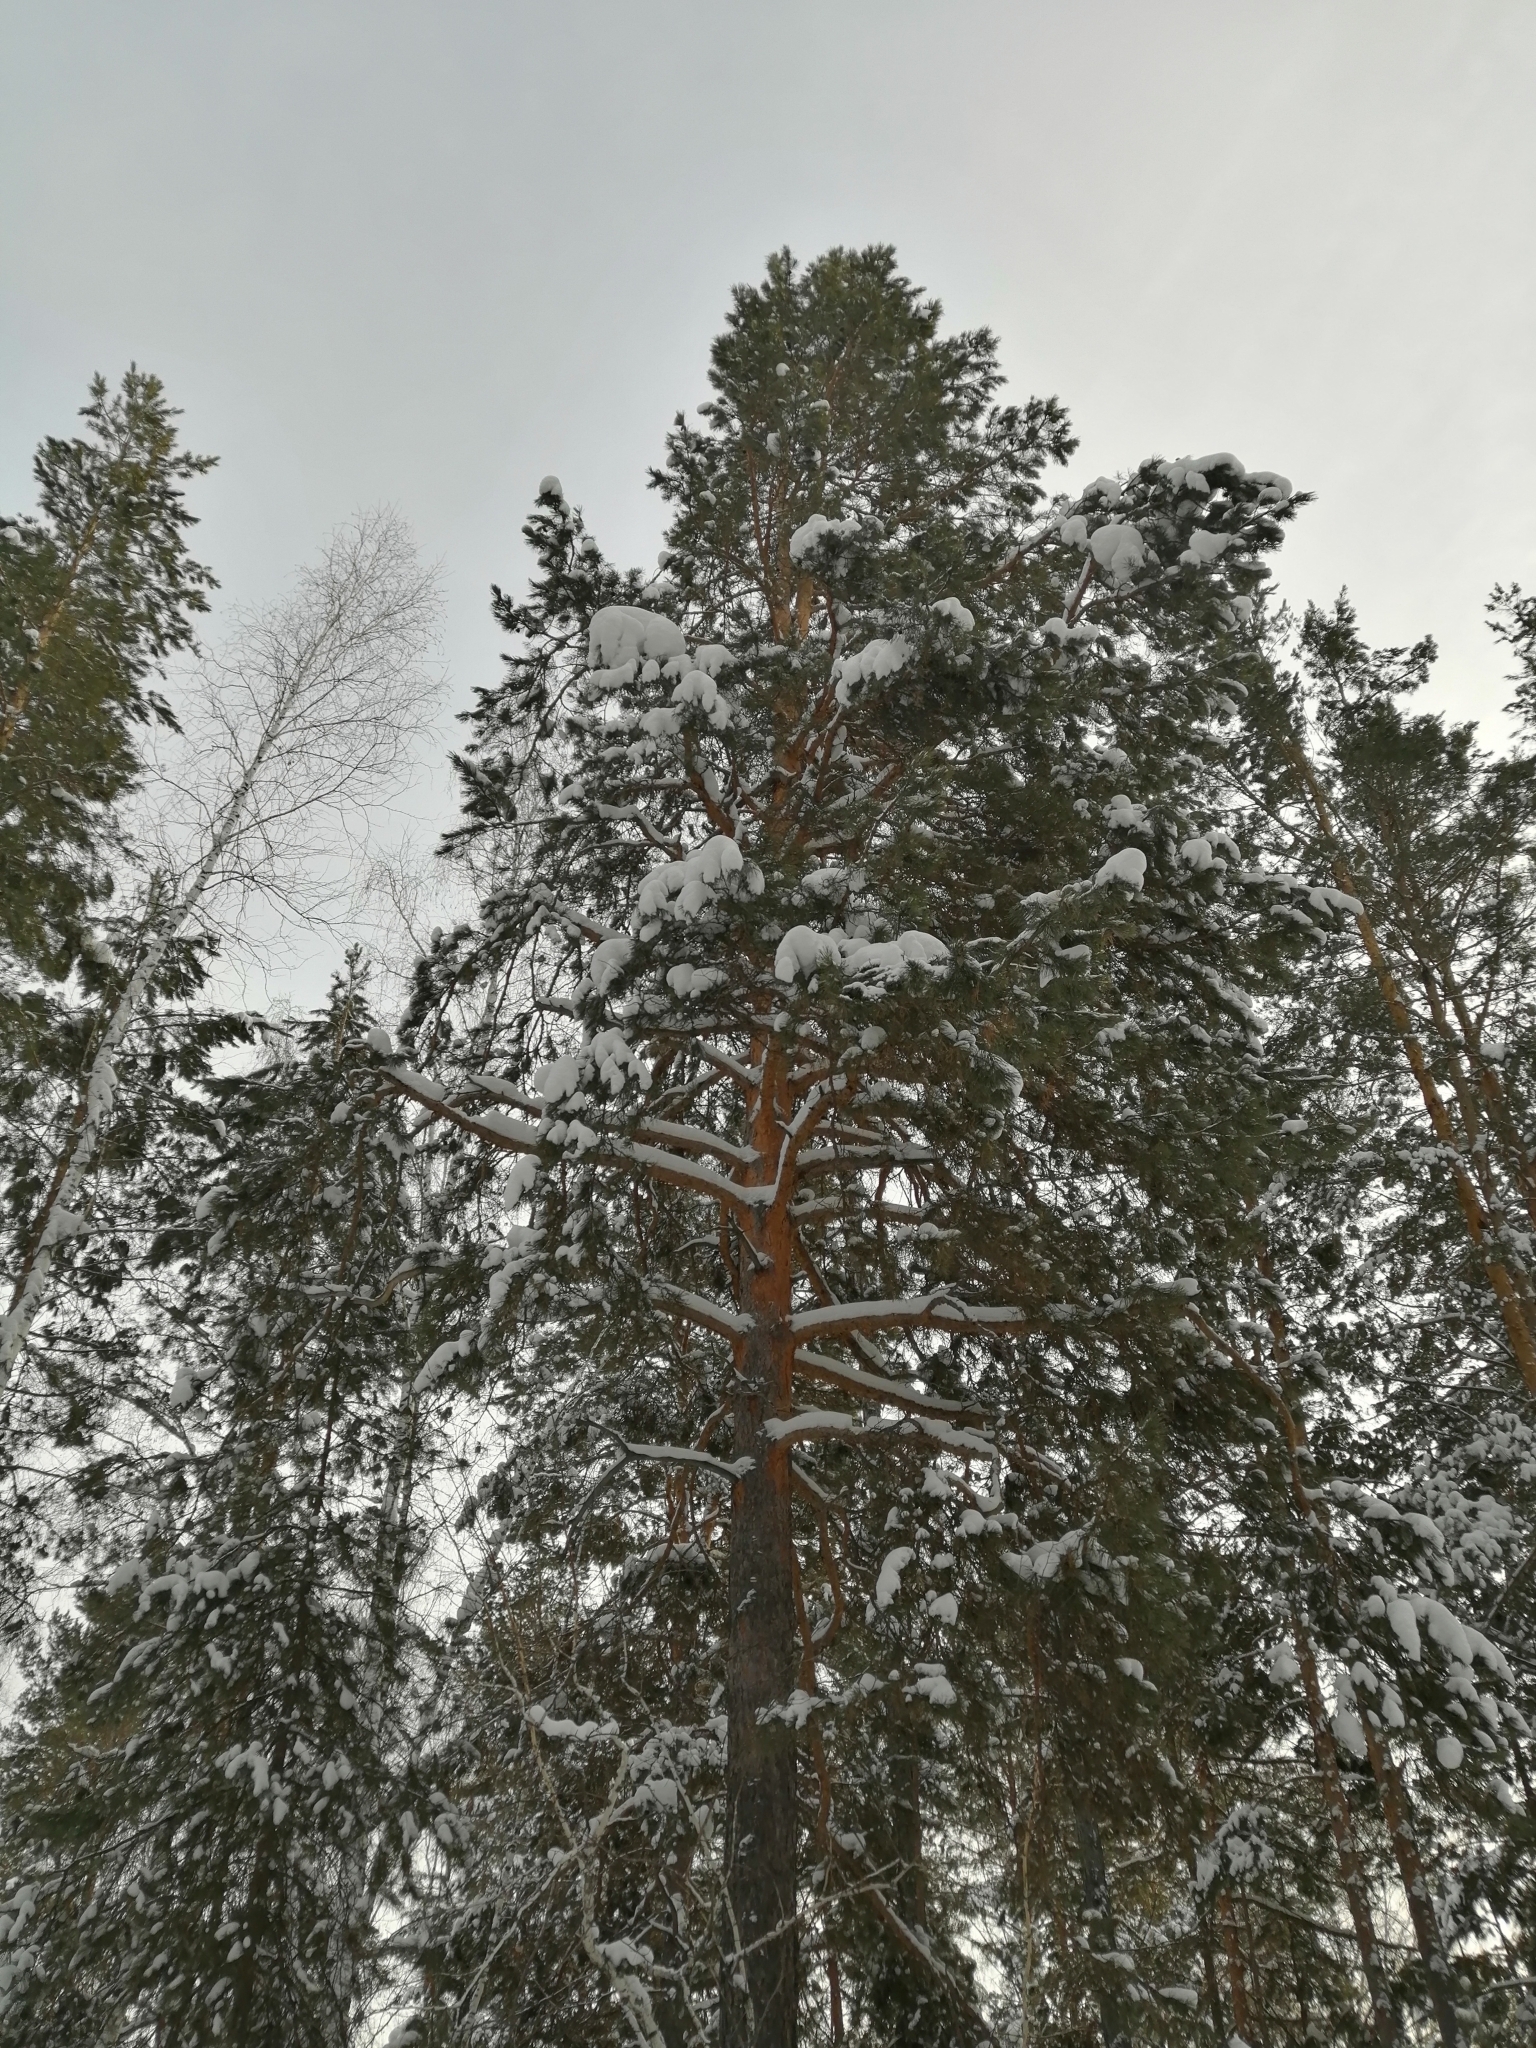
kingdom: Plantae
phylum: Tracheophyta
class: Pinopsida
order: Pinales
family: Pinaceae
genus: Pinus
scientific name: Pinus sylvestris
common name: Scots pine
